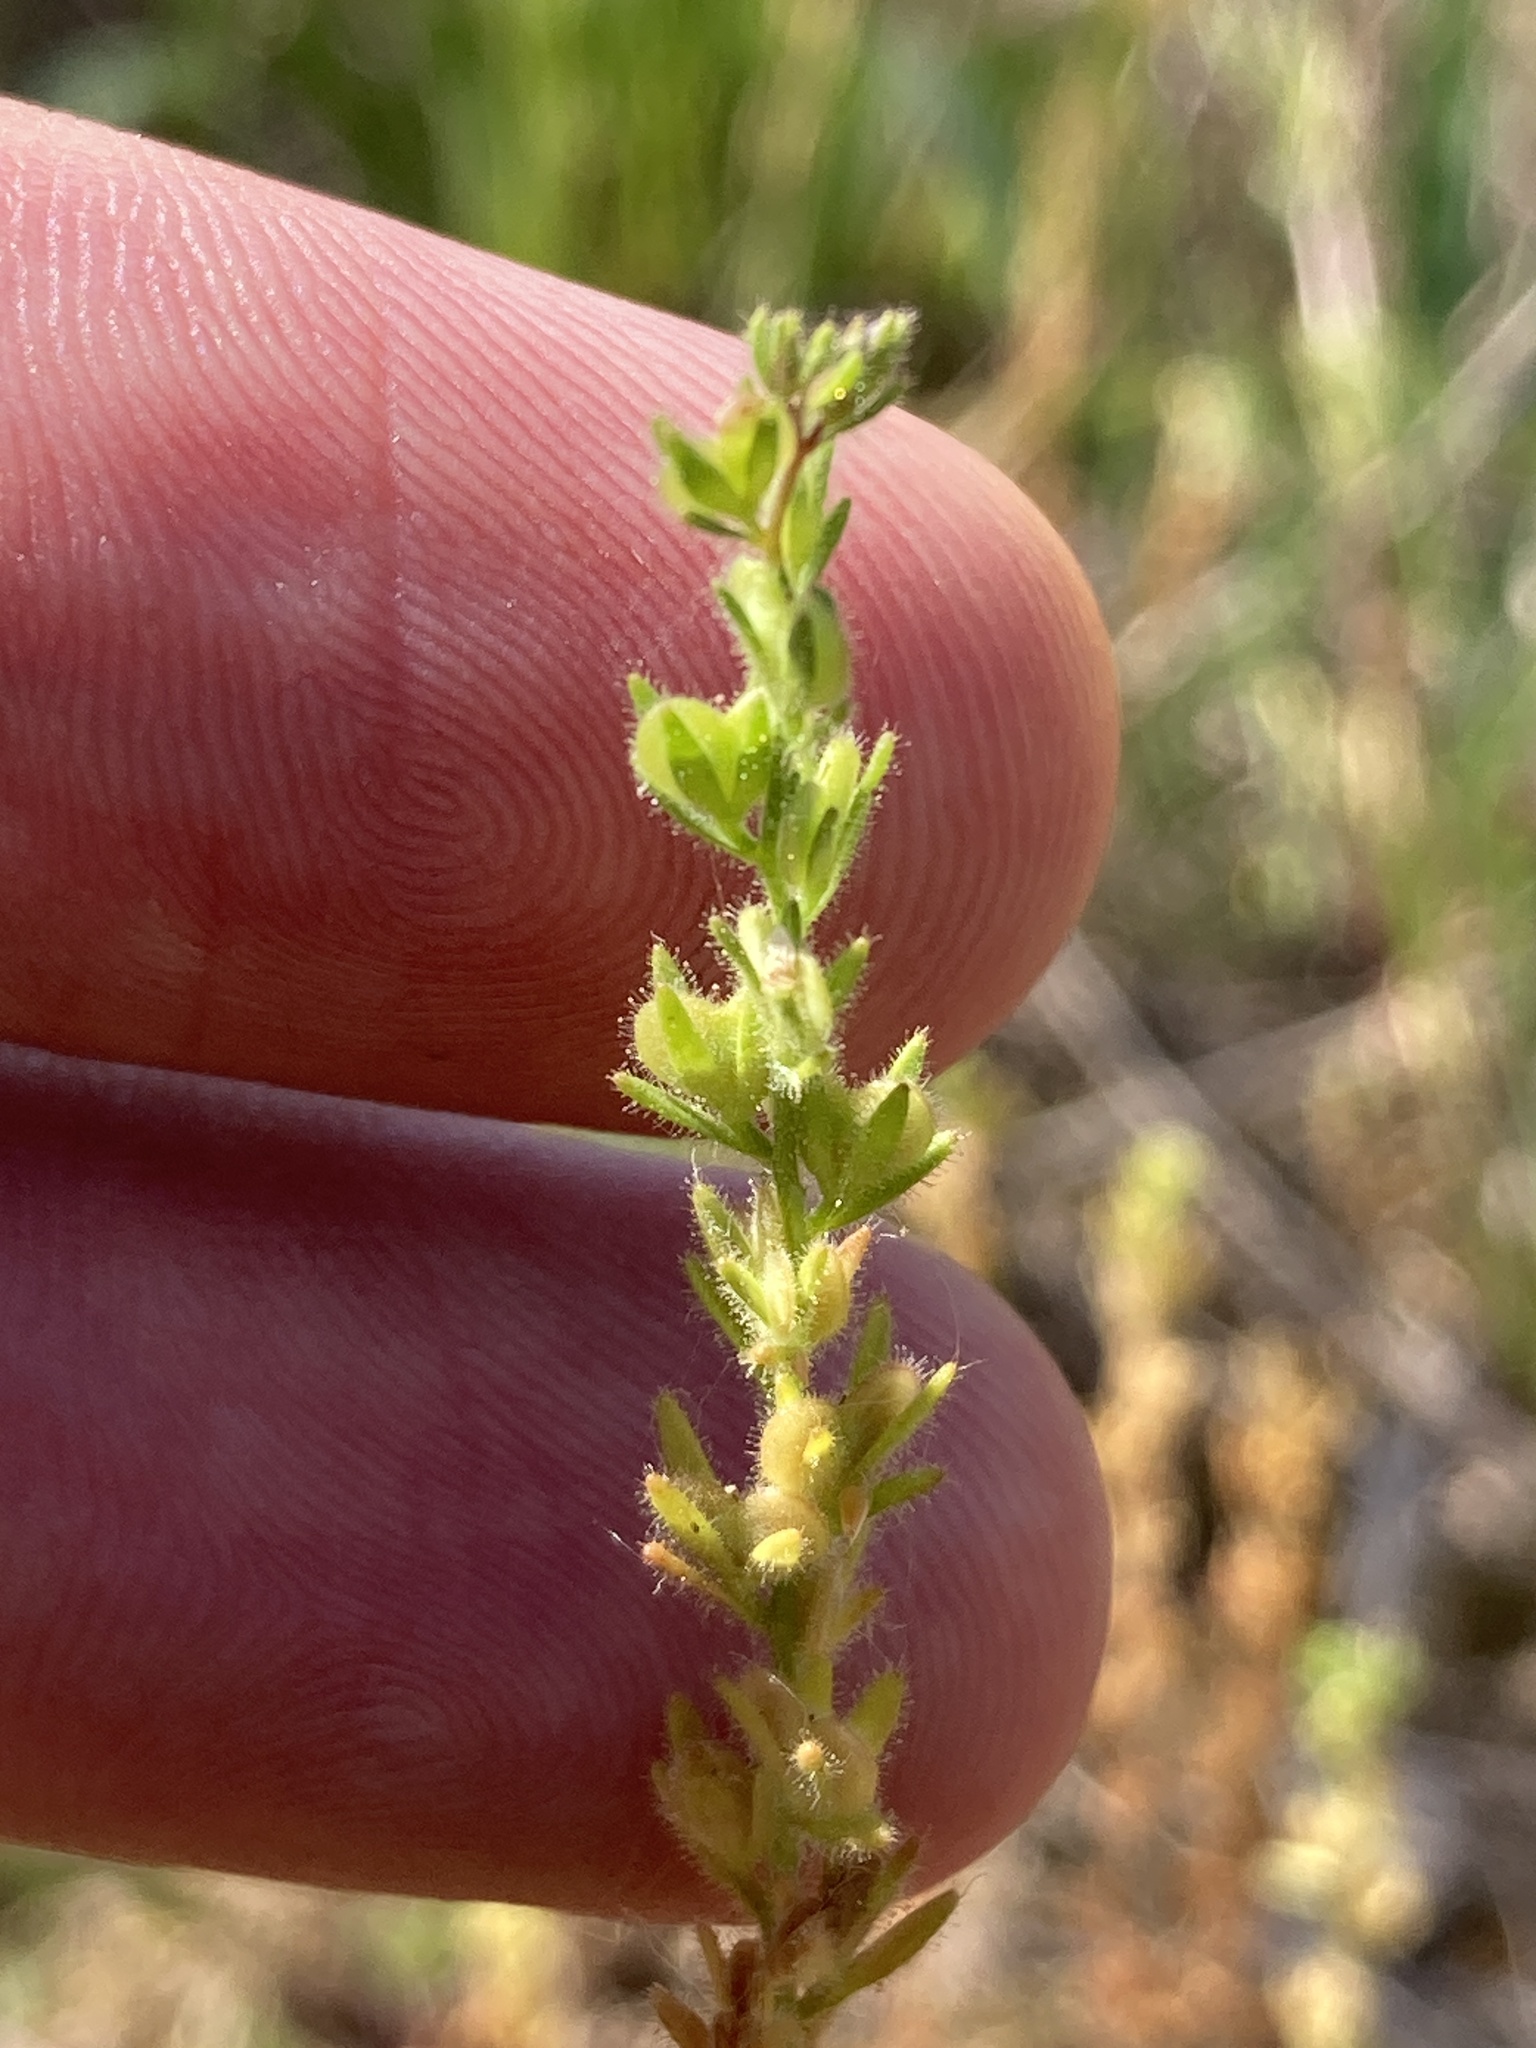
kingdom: Plantae
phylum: Tracheophyta
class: Magnoliopsida
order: Lamiales
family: Plantaginaceae
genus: Veronica
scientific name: Veronica verna
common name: Spring speedwell
